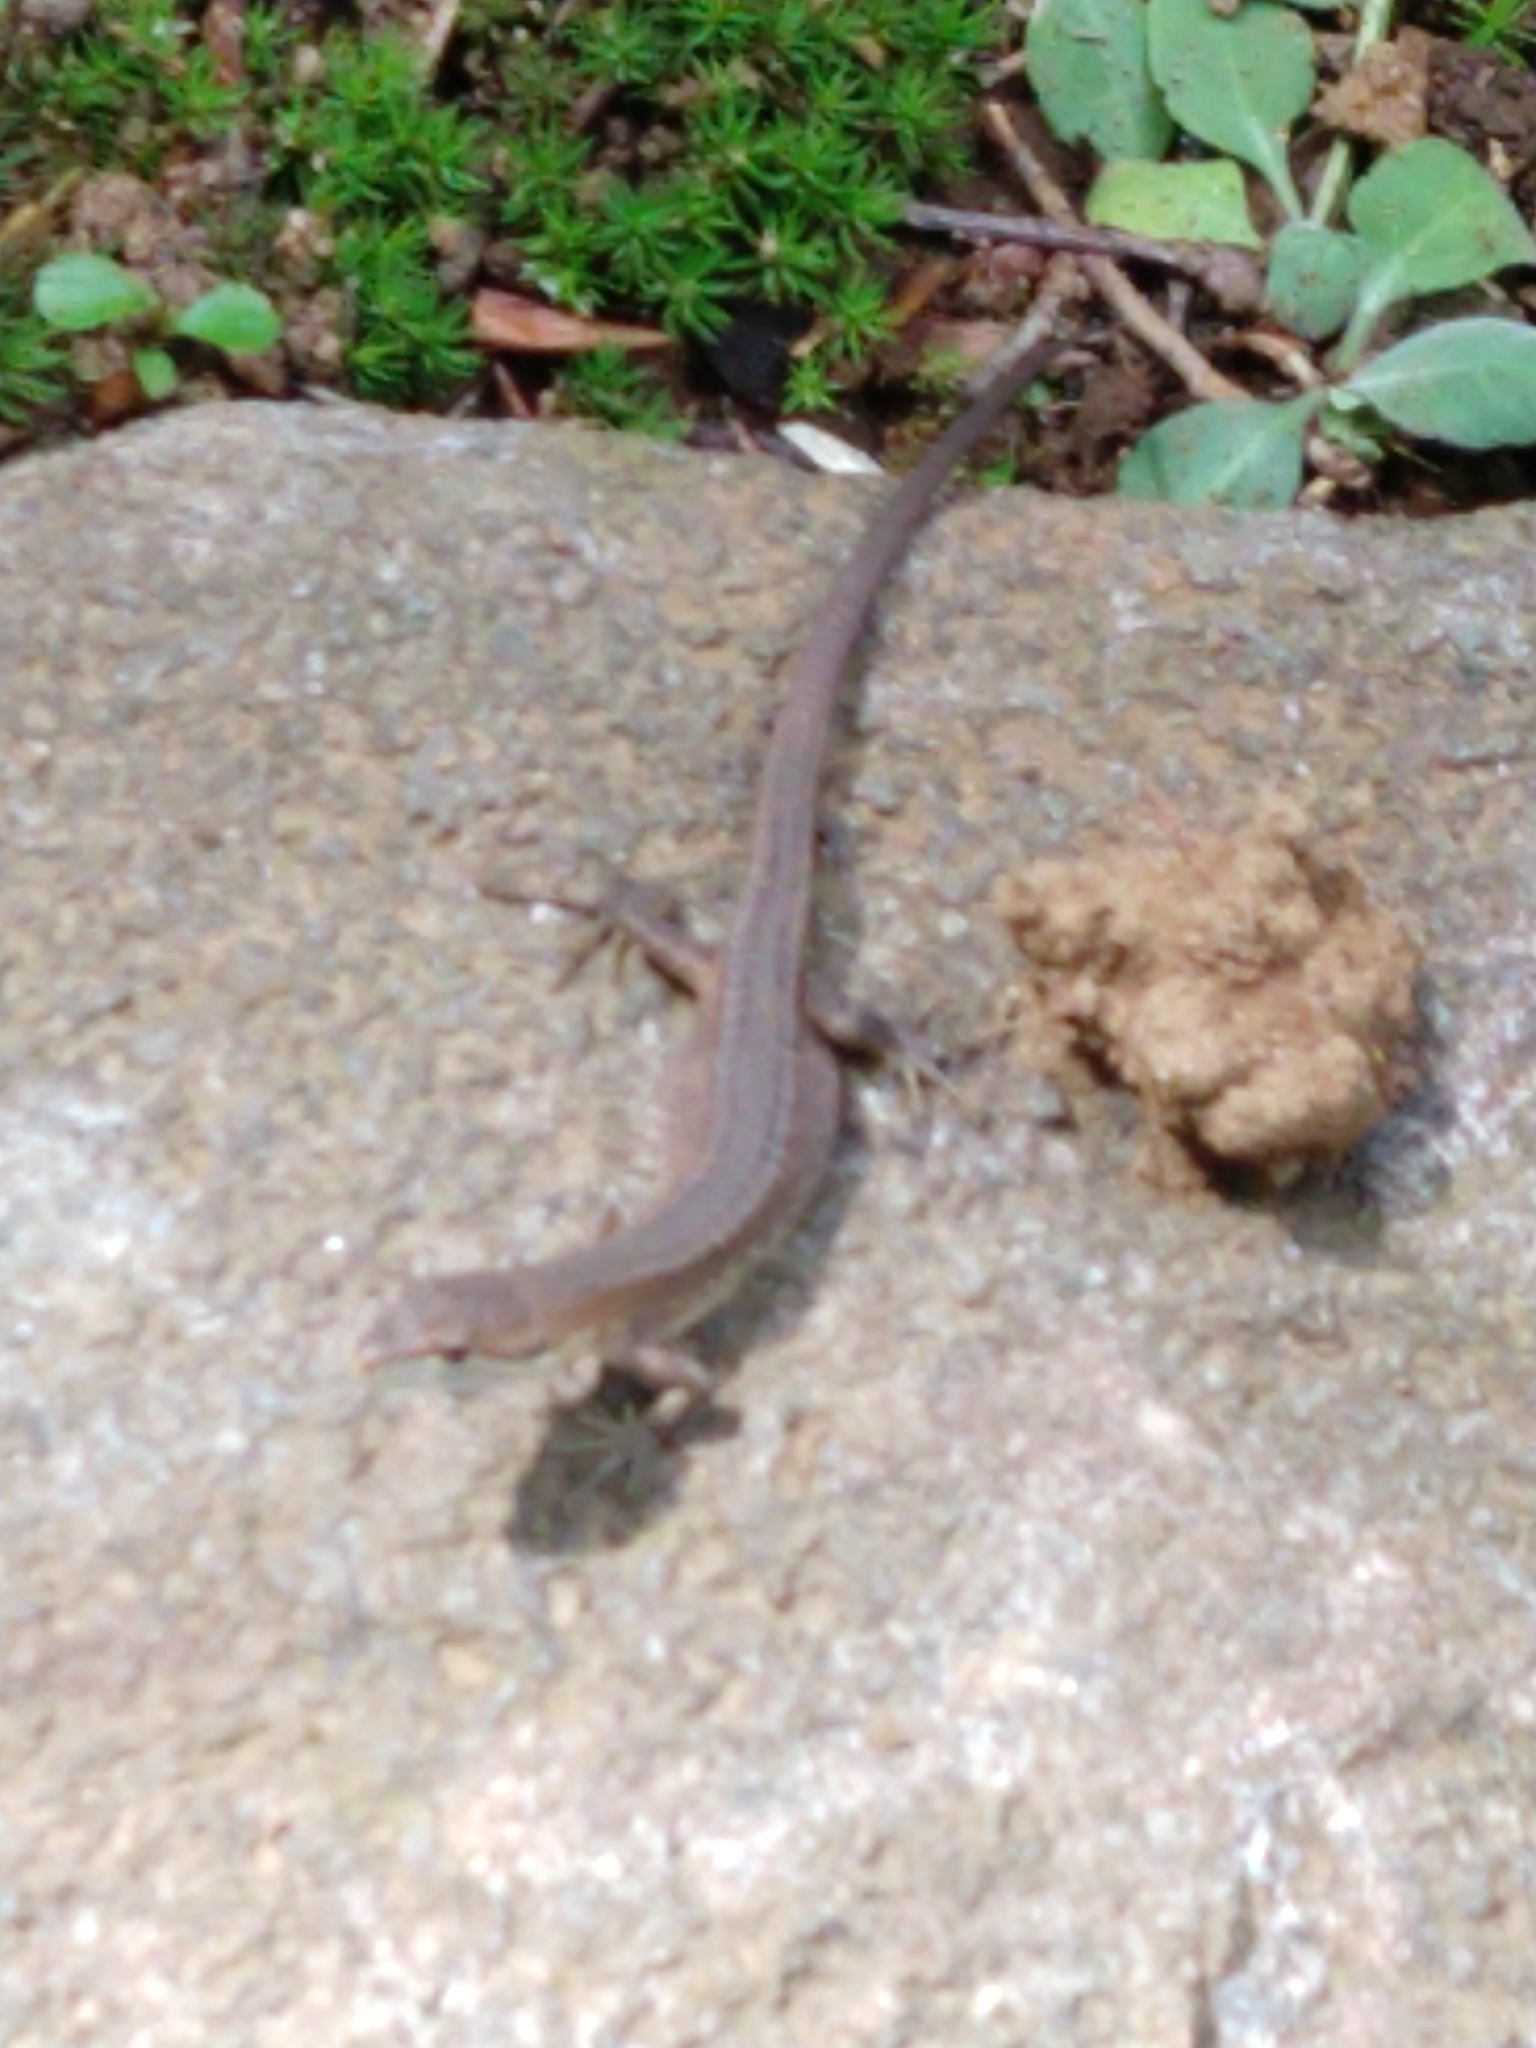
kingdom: Animalia
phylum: Chordata
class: Squamata
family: Lacertidae
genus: Takydromus
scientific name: Takydromus tachydromoides
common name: Japanese grass lizard
